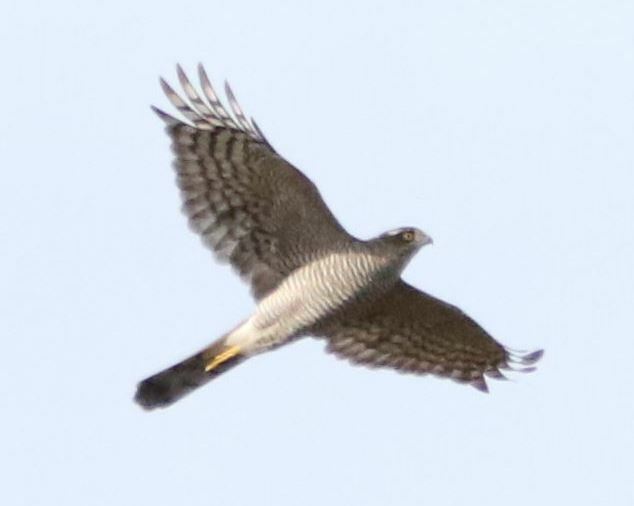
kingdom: Animalia
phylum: Chordata
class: Aves
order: Accipitriformes
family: Accipitridae
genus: Accipiter
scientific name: Accipiter nisus
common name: Eurasian sparrowhawk
